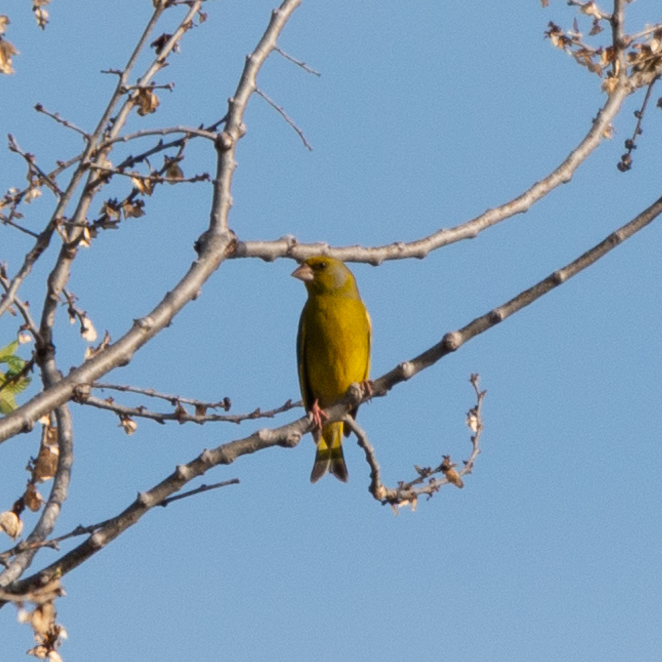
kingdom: Plantae
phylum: Tracheophyta
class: Liliopsida
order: Poales
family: Poaceae
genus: Chloris
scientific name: Chloris chloris
